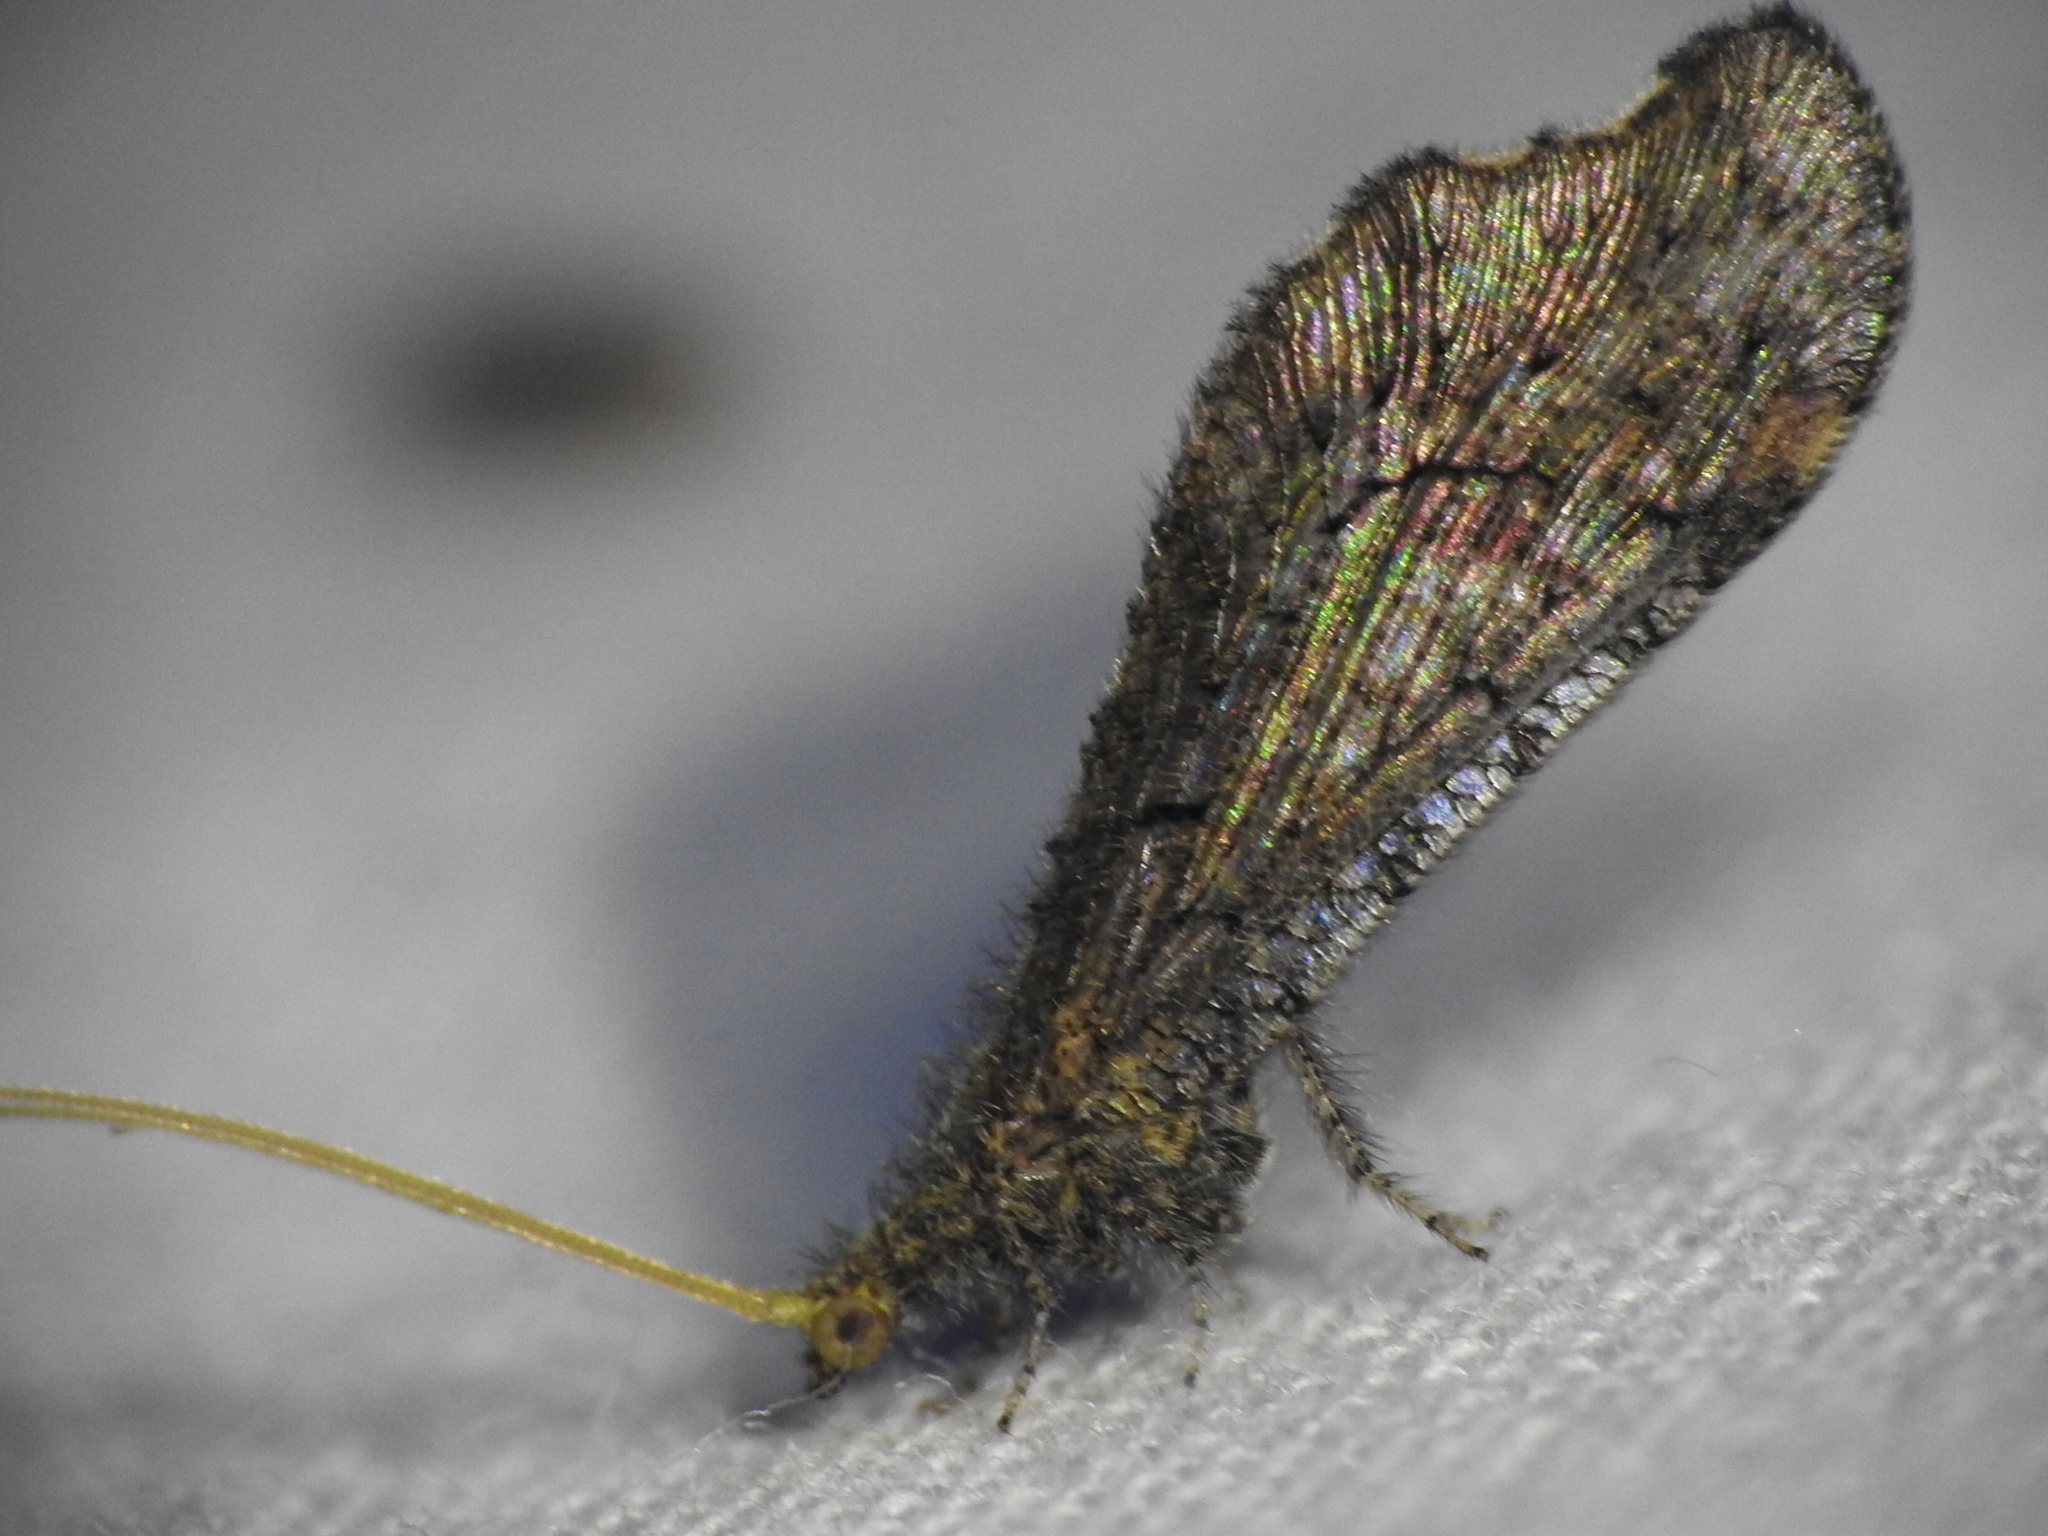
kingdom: Animalia
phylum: Arthropoda
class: Insecta
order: Neuroptera
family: Berothidae
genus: Lomamyia
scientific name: Lomamyia squamosa
